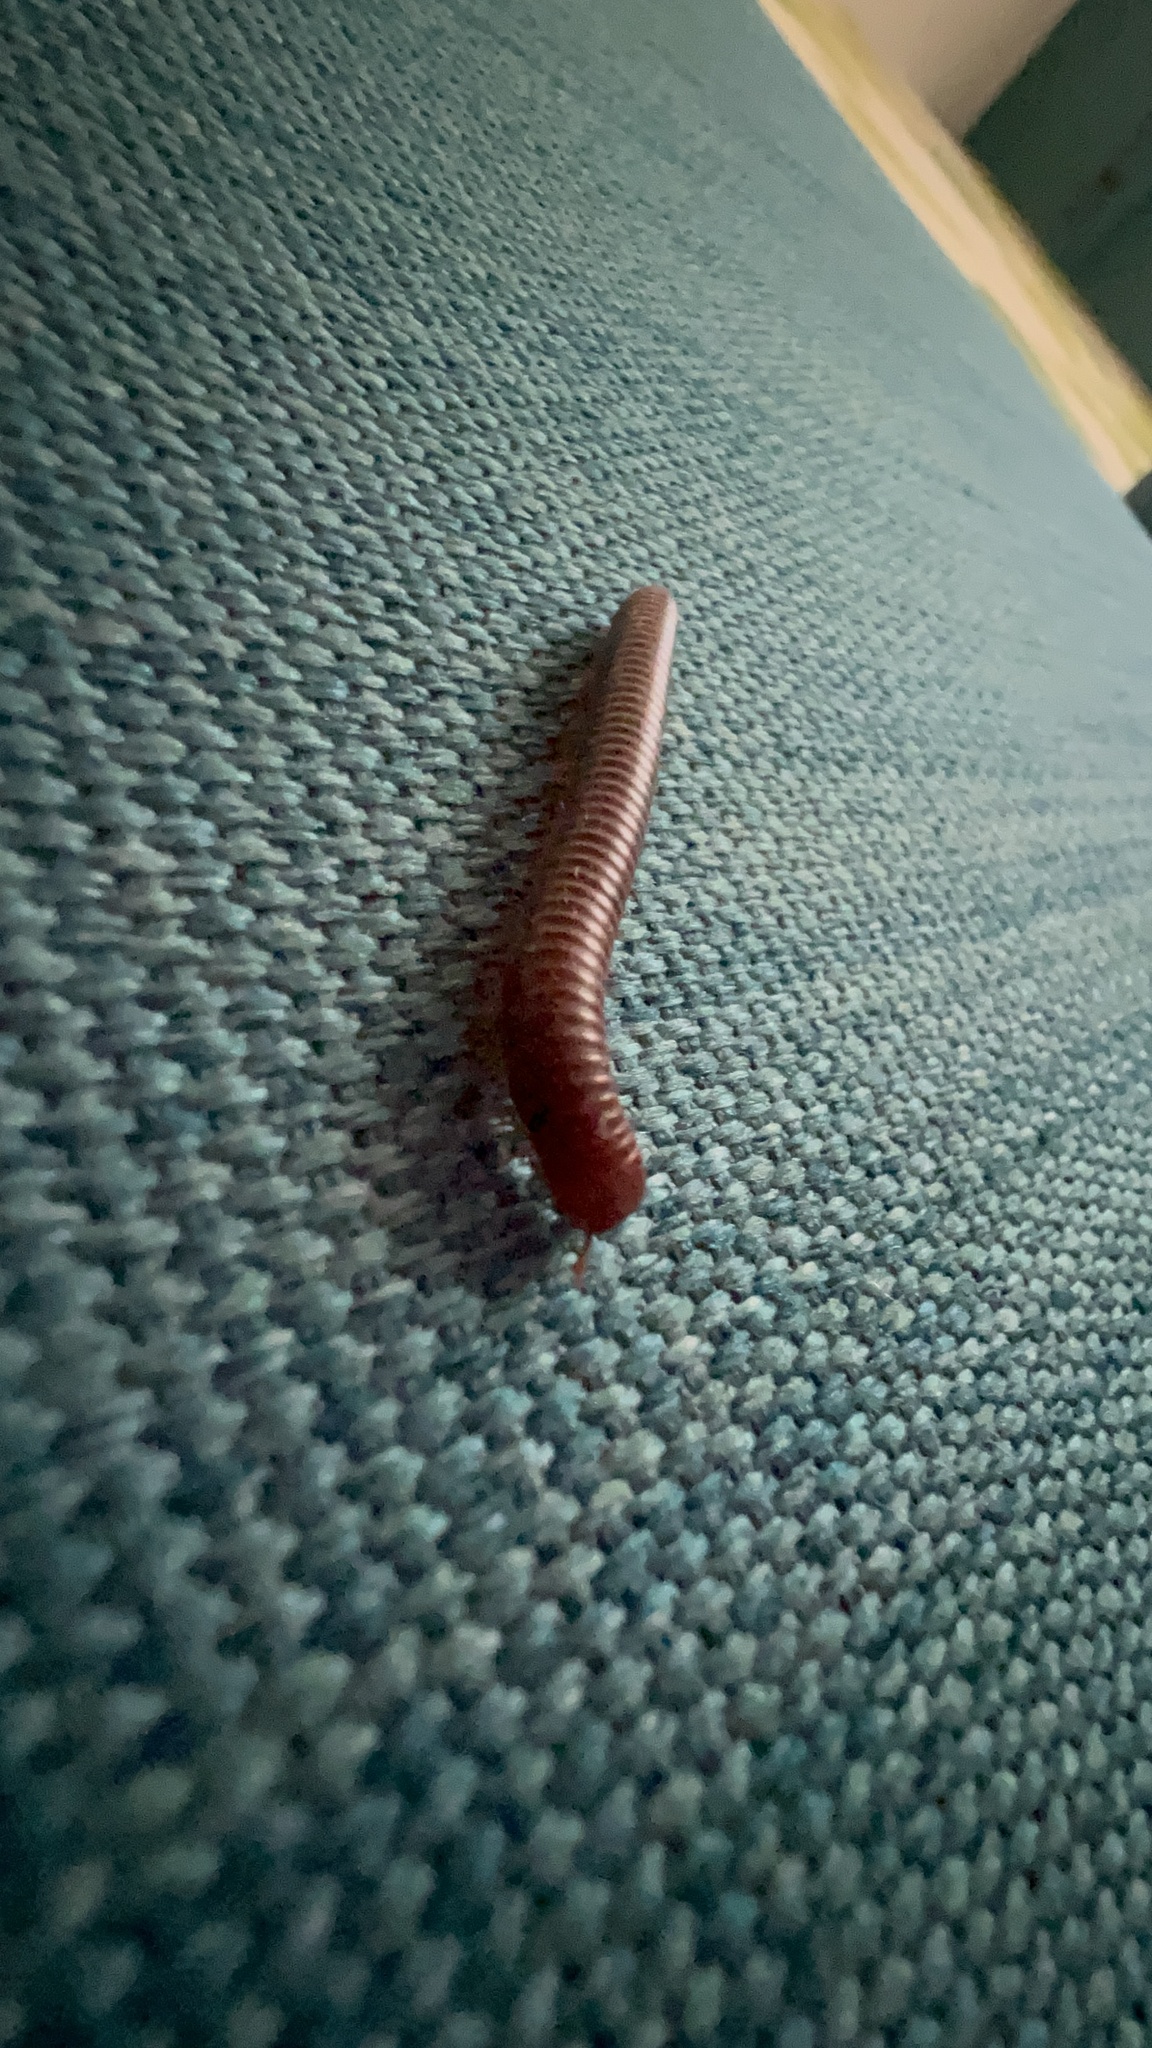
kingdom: Animalia
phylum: Arthropoda
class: Diplopoda
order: Spirobolida
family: Pachybolidae
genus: Trigoniulus
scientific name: Trigoniulus corallinus
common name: Millipede
